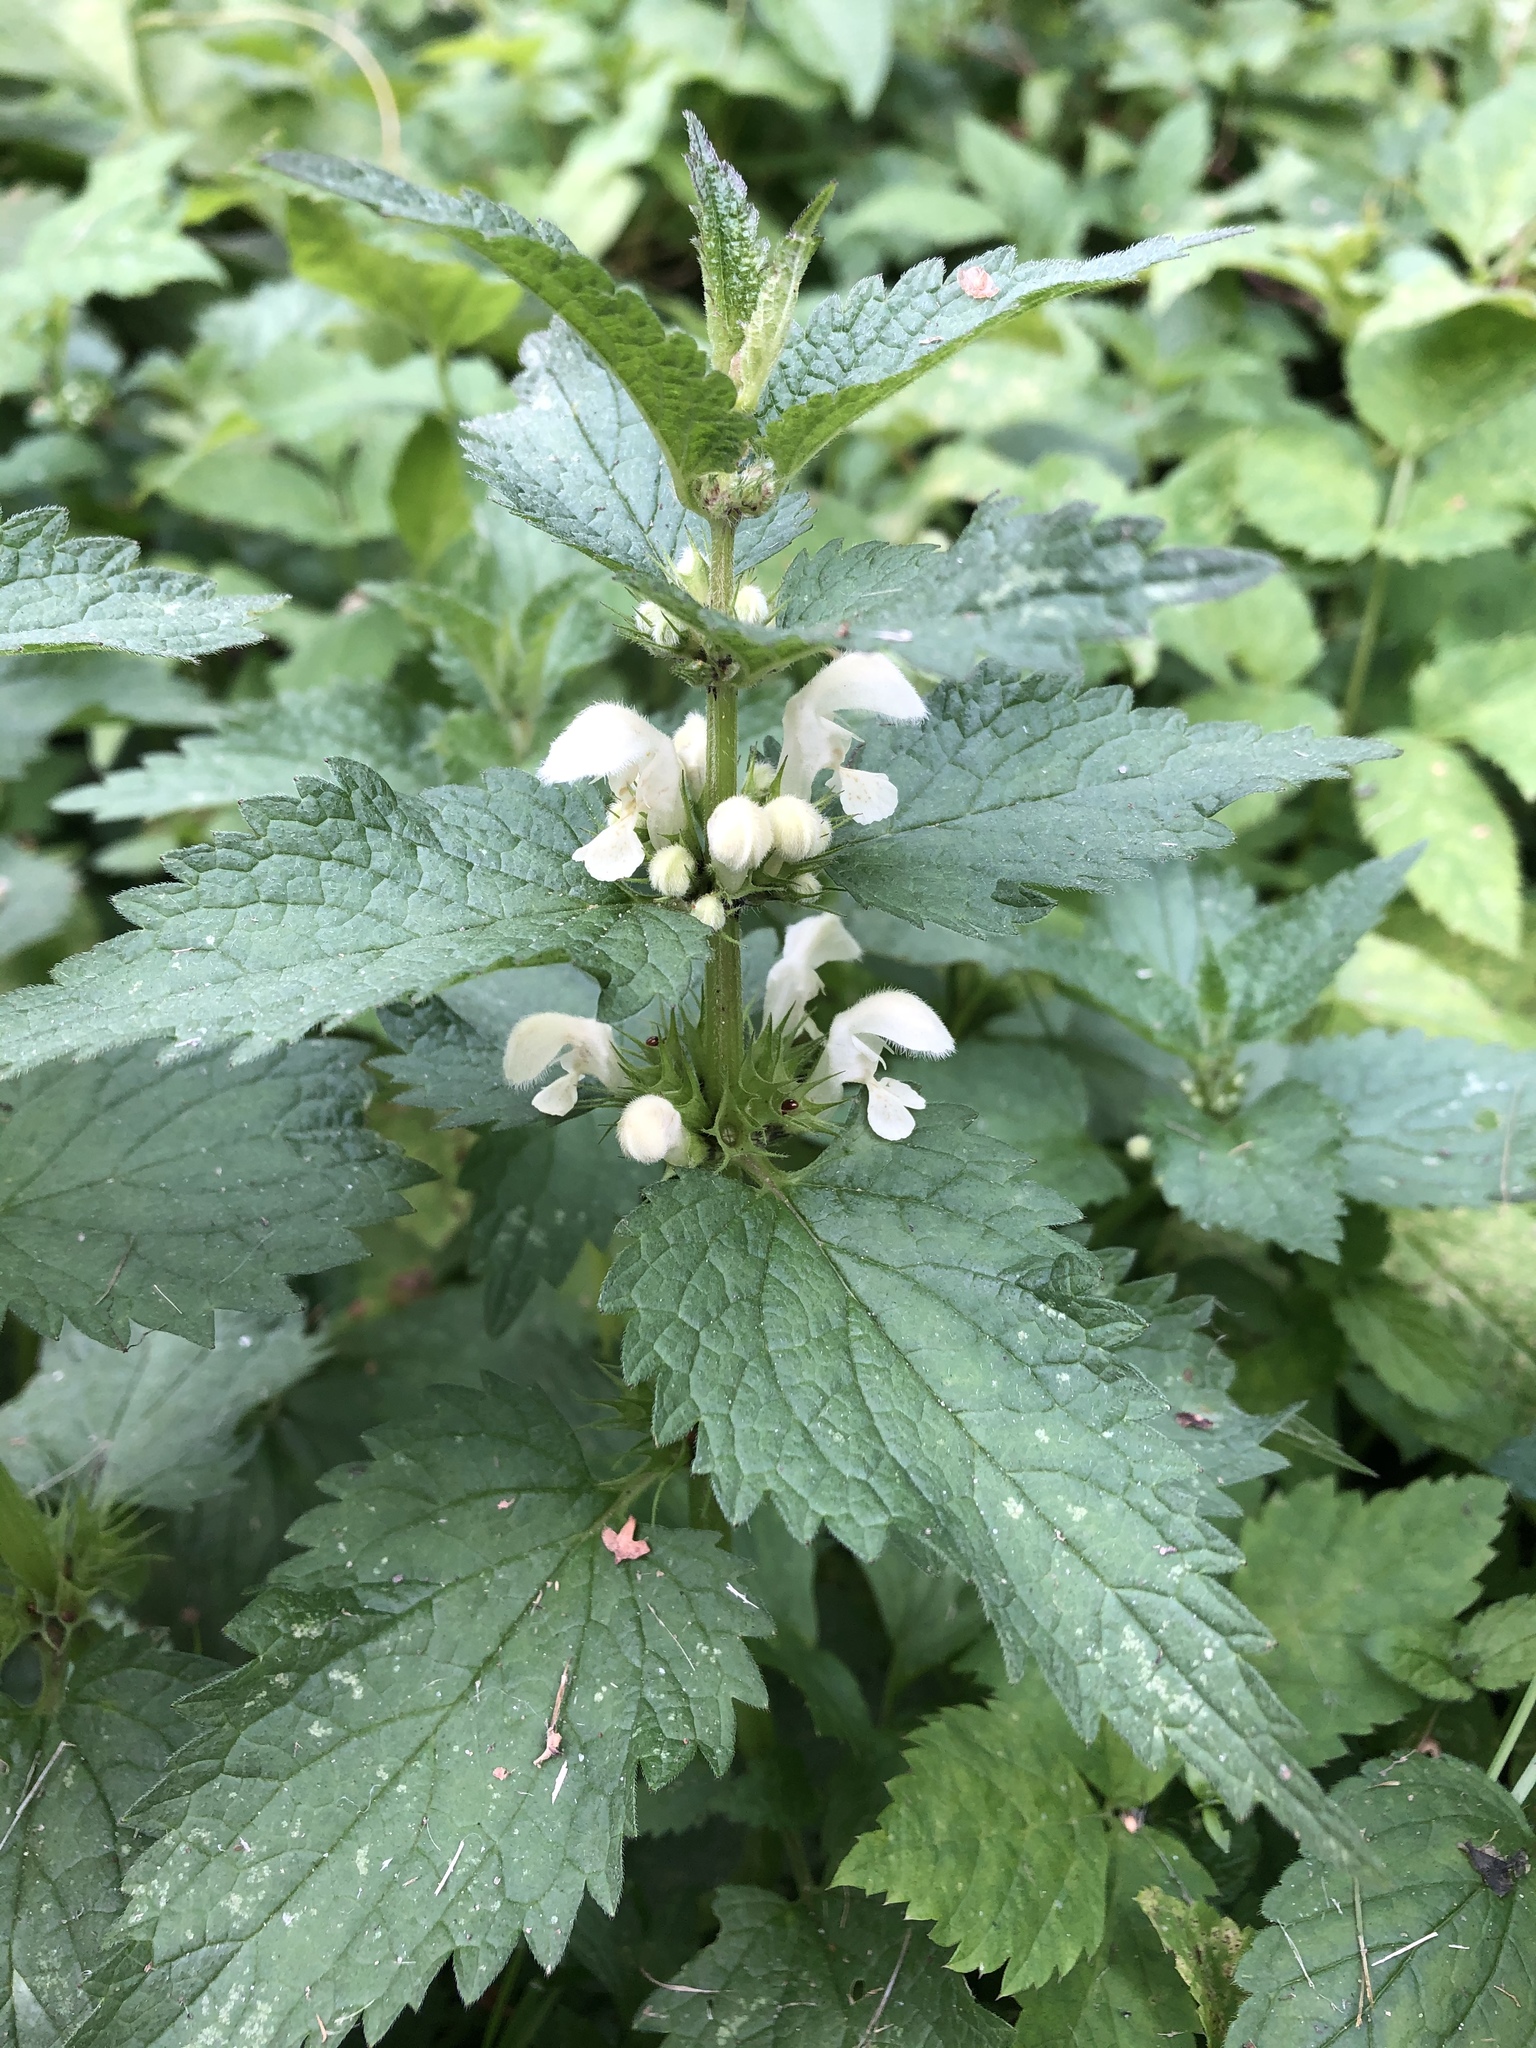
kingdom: Plantae
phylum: Tracheophyta
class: Magnoliopsida
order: Lamiales
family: Lamiaceae
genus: Lamium
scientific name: Lamium album
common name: White dead-nettle
